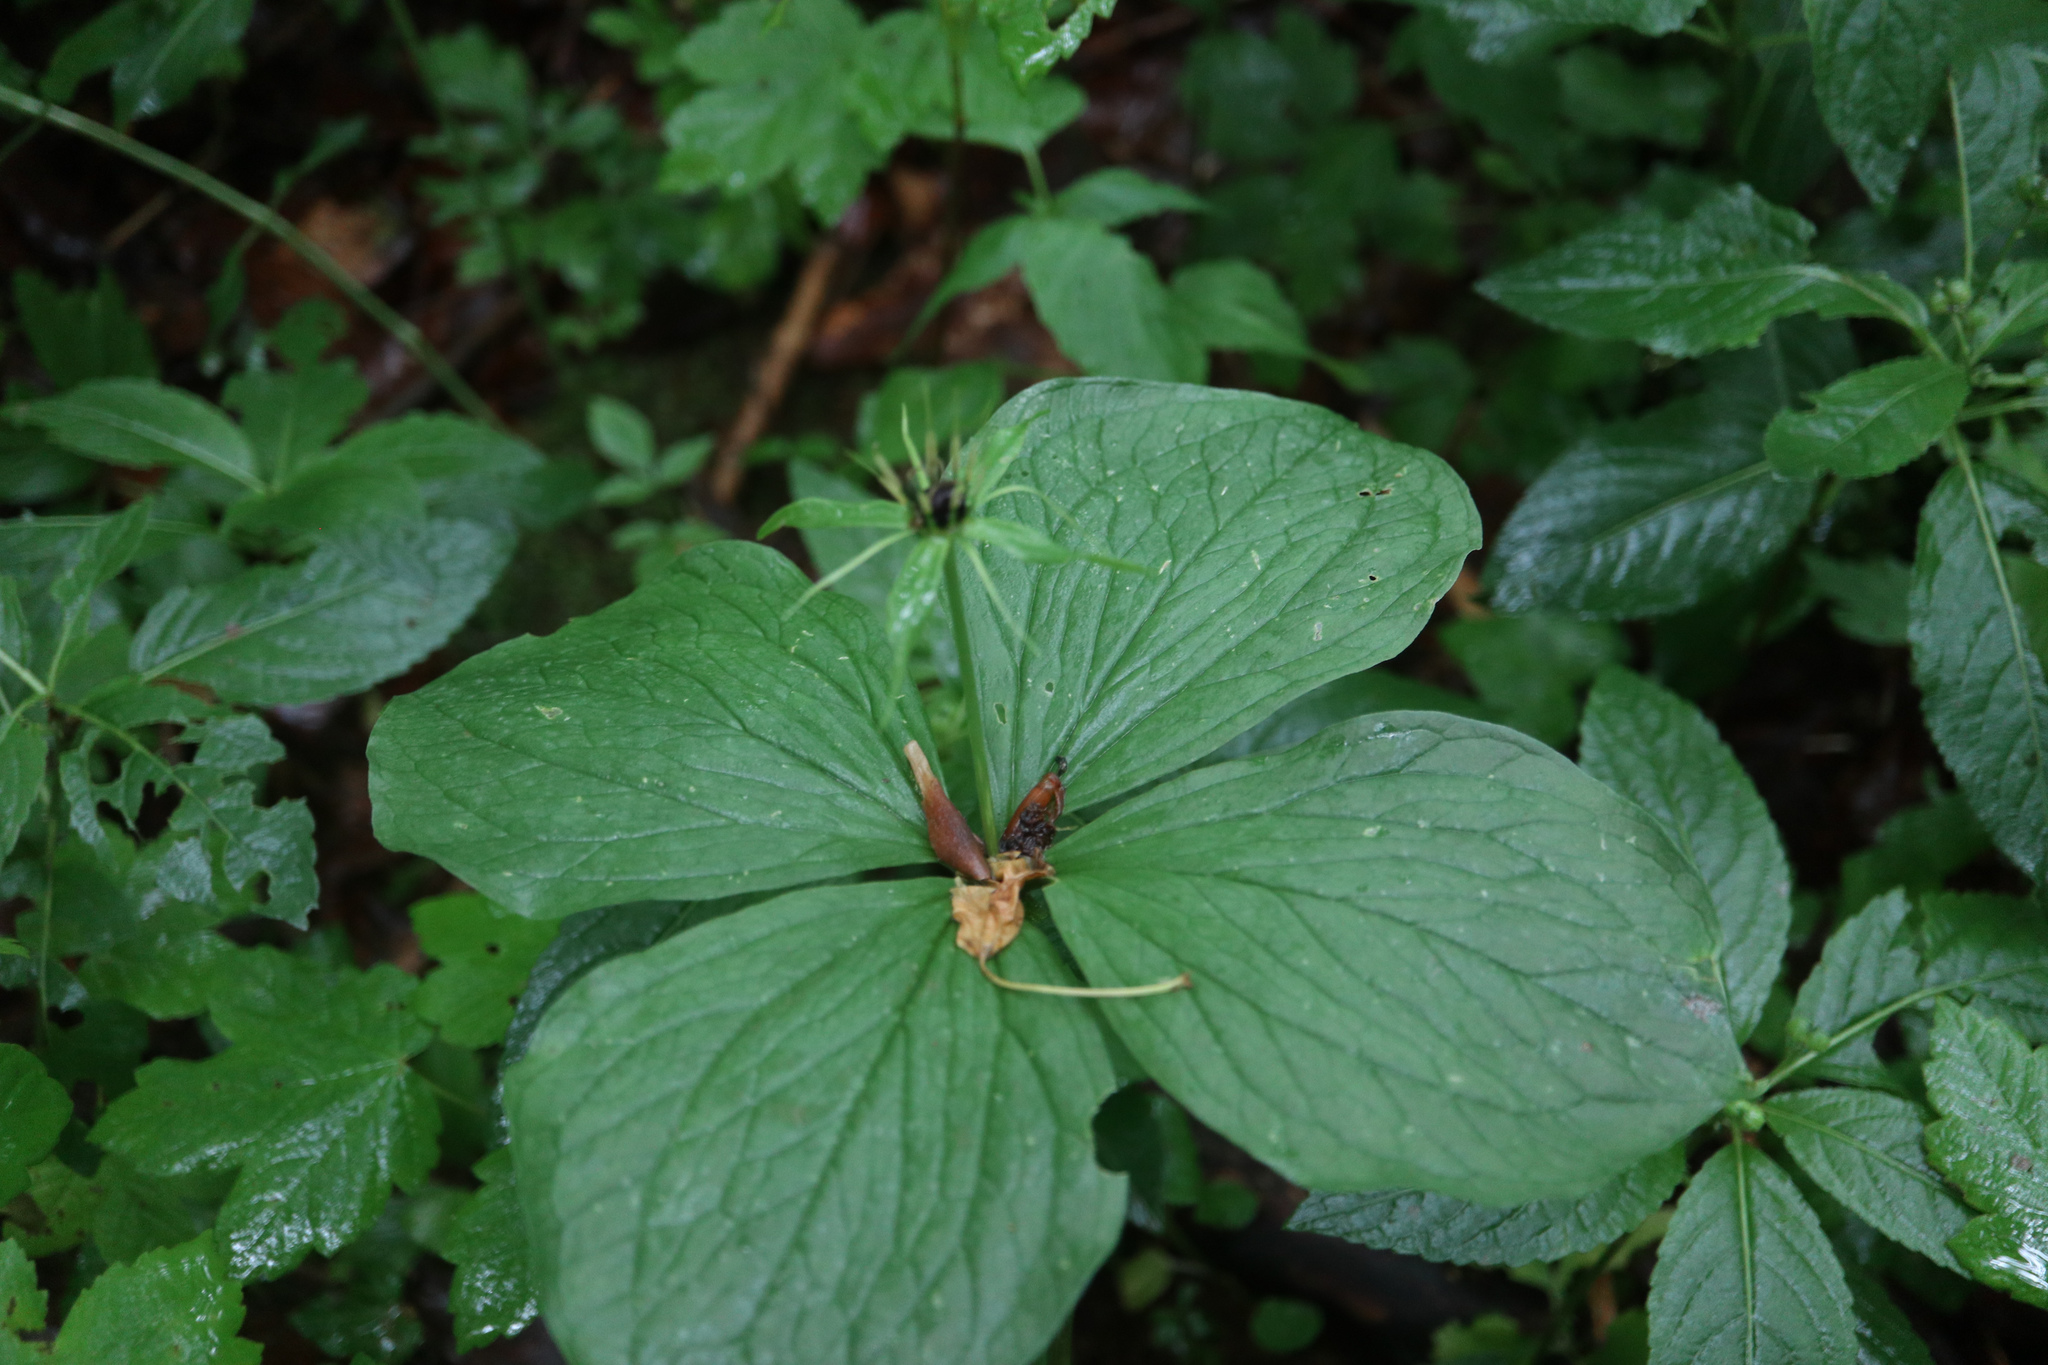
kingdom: Plantae
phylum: Tracheophyta
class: Liliopsida
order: Liliales
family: Melanthiaceae
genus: Paris
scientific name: Paris quadrifolia
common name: Herb-paris
